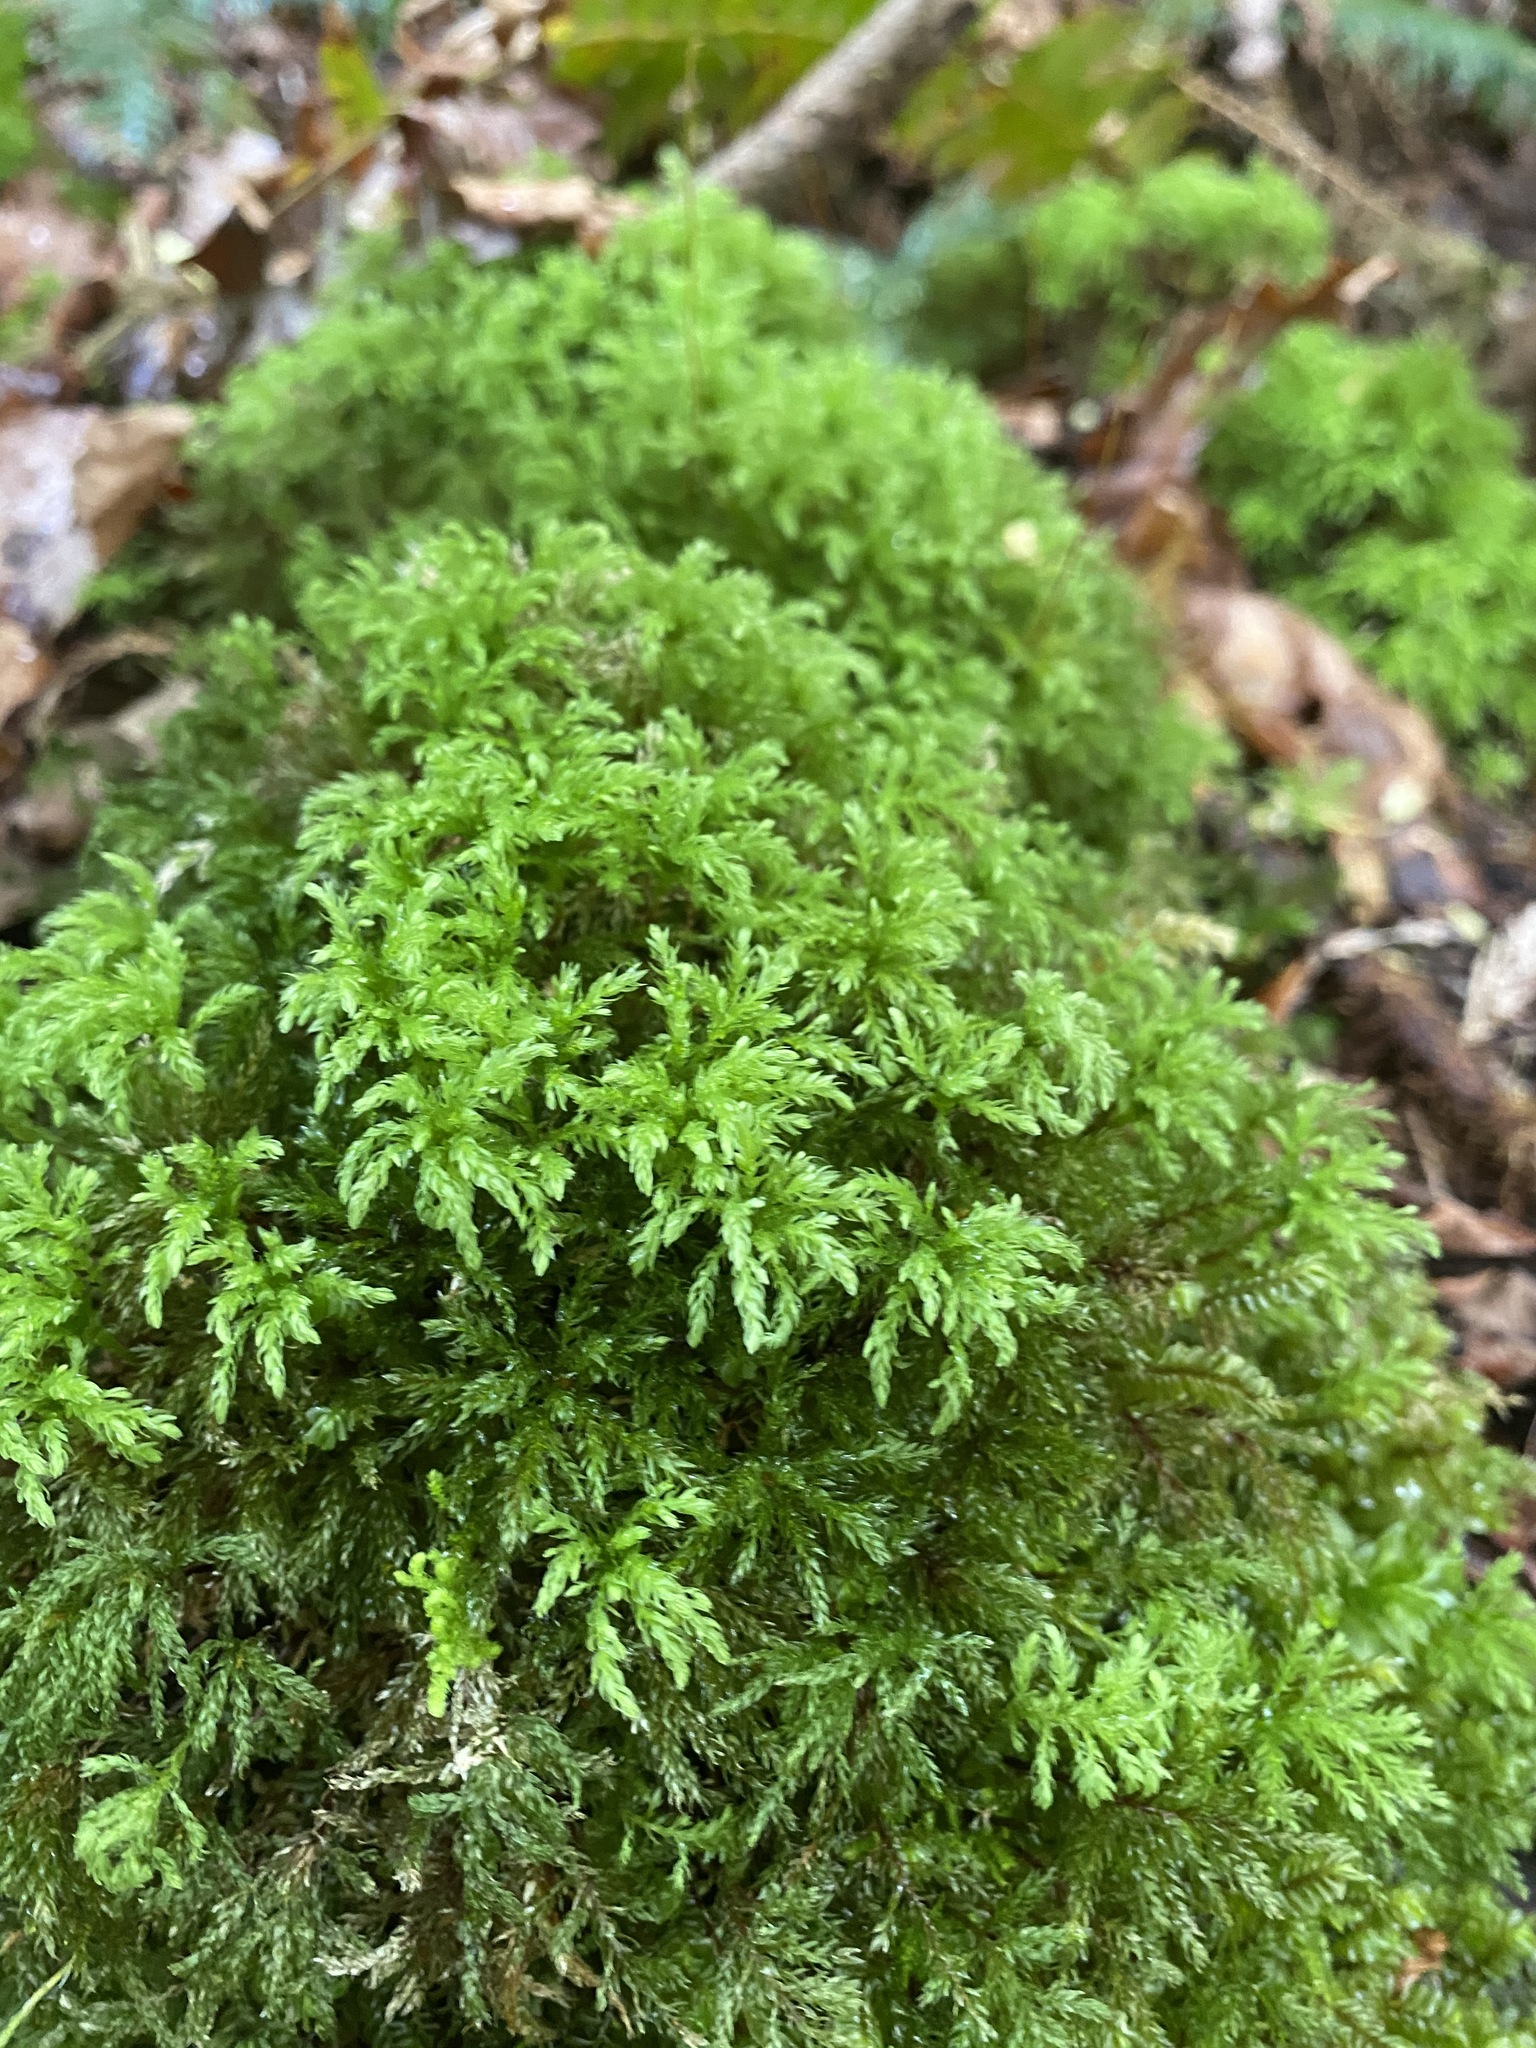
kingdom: Plantae
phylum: Bryophyta
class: Bryopsida
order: Bryales
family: Mniaceae
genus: Leucolepis
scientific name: Leucolepis acanthoneura
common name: Leucolepis umbrella moss
